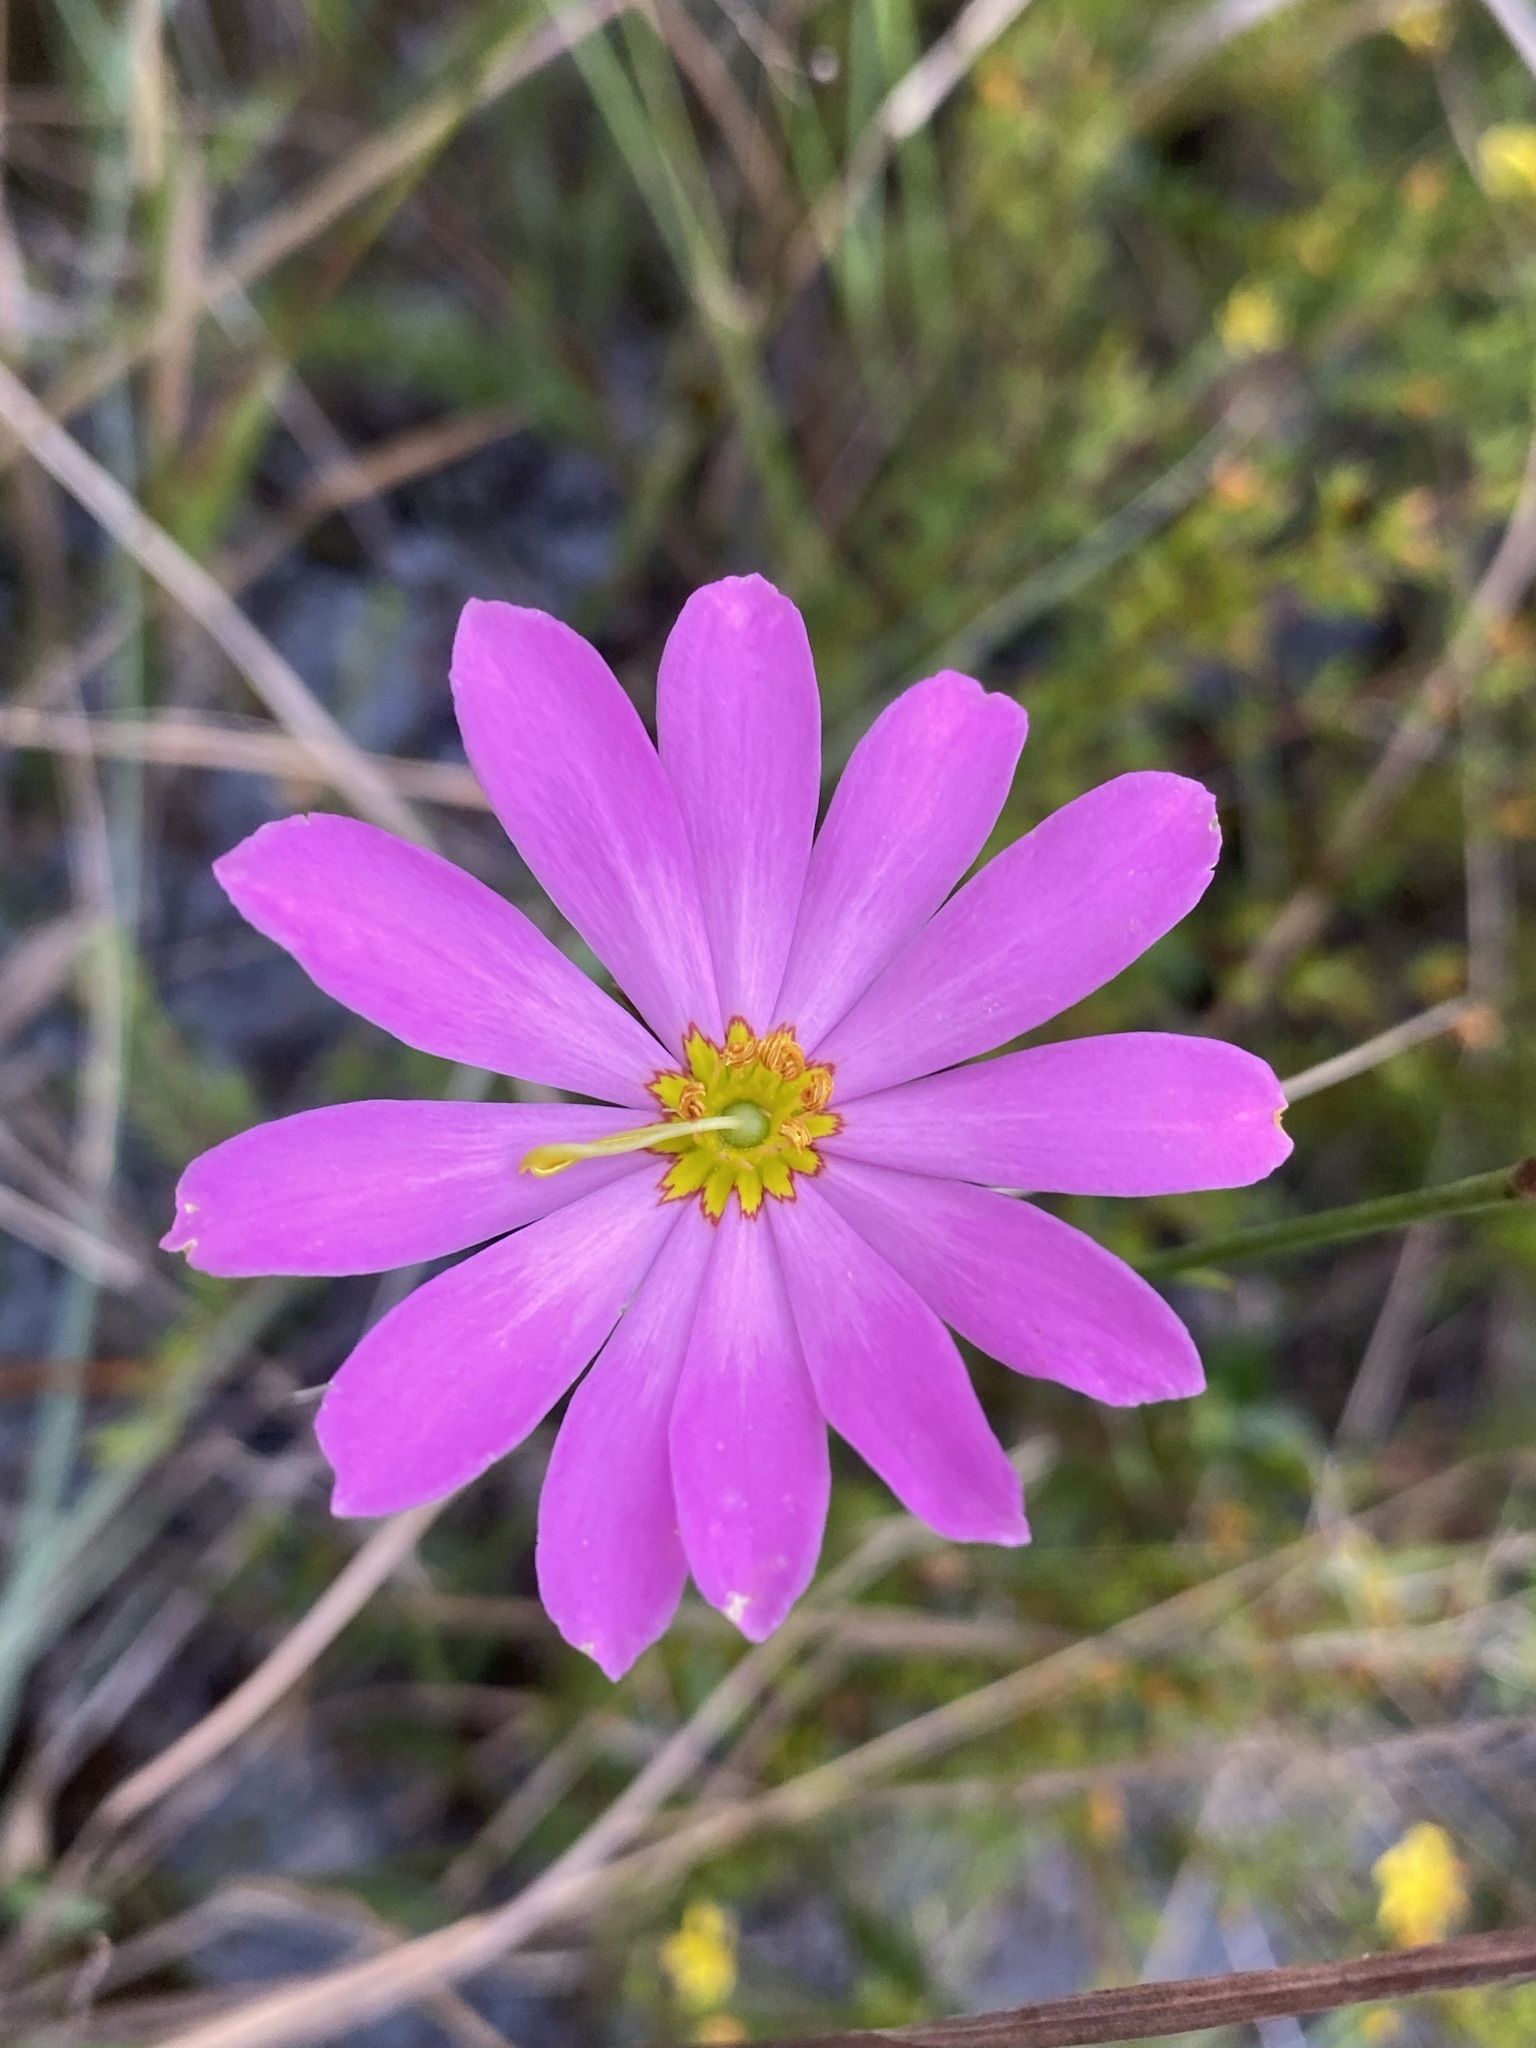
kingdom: Plantae
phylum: Tracheophyta
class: Magnoliopsida
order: Gentianales
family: Gentianaceae
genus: Sabatia
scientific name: Sabatia decandra
